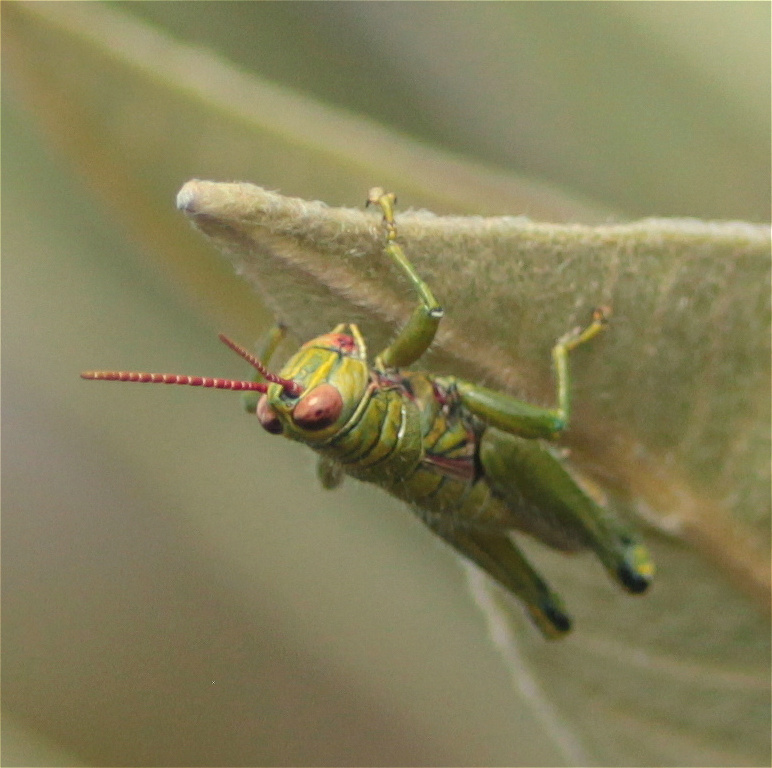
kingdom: Animalia
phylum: Arthropoda
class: Insecta
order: Orthoptera
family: Acrididae
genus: Agesander
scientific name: Agesander ruficornis
